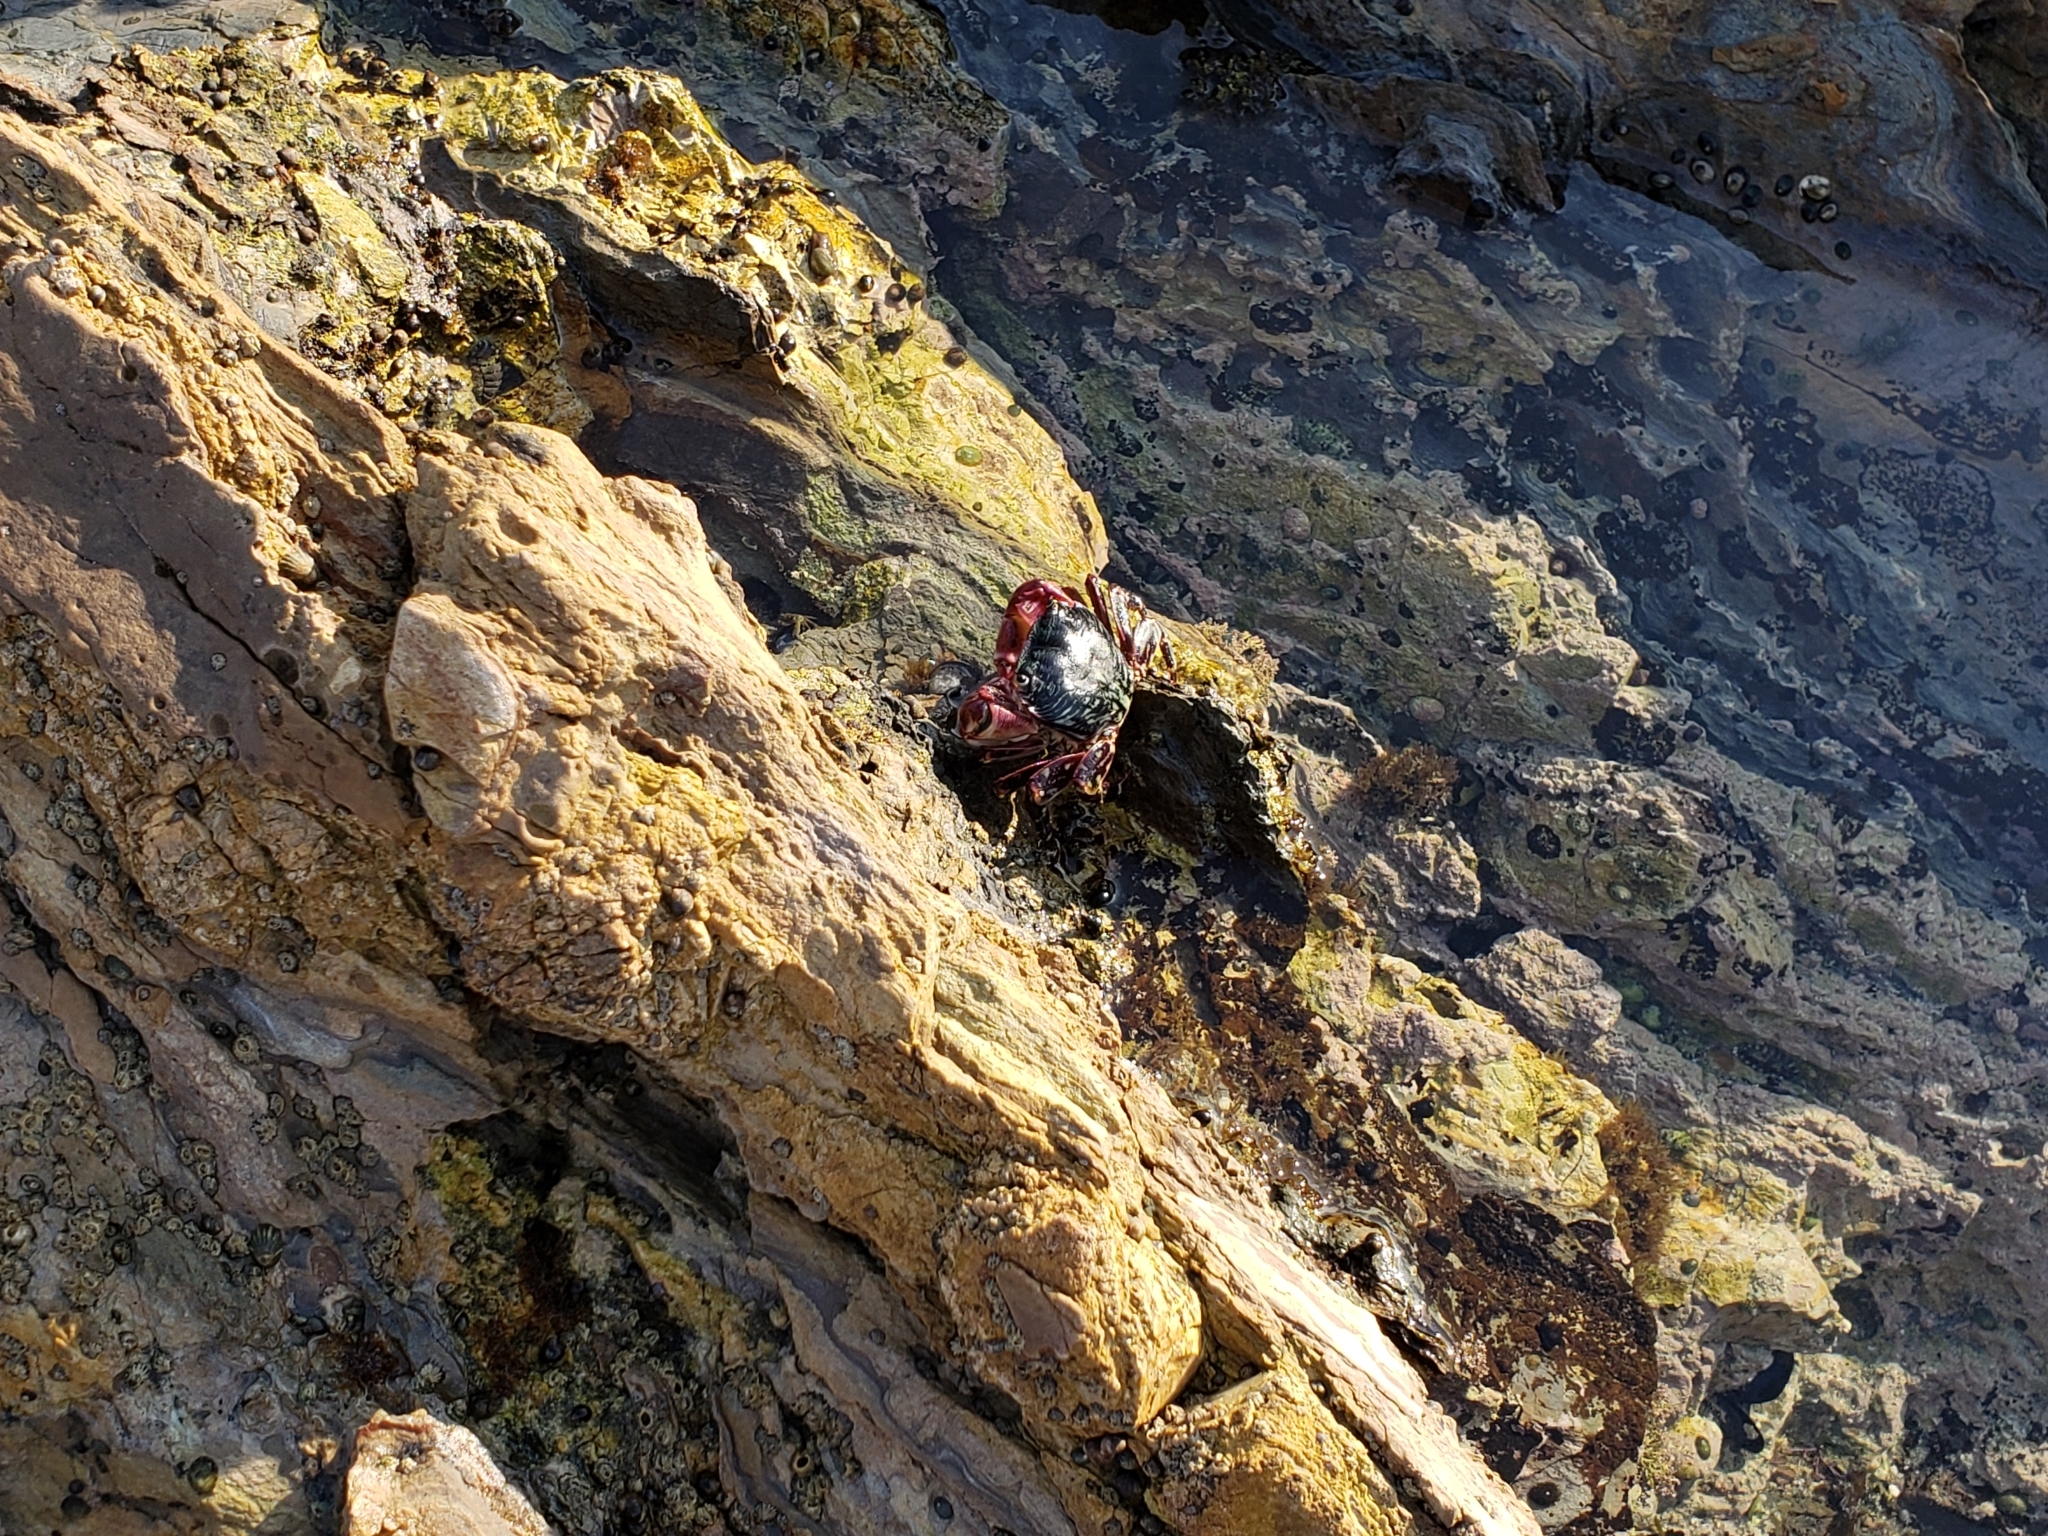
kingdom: Animalia
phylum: Arthropoda
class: Malacostraca
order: Decapoda
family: Grapsidae
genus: Pachygrapsus
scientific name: Pachygrapsus crassipes
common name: Striped shore crab
